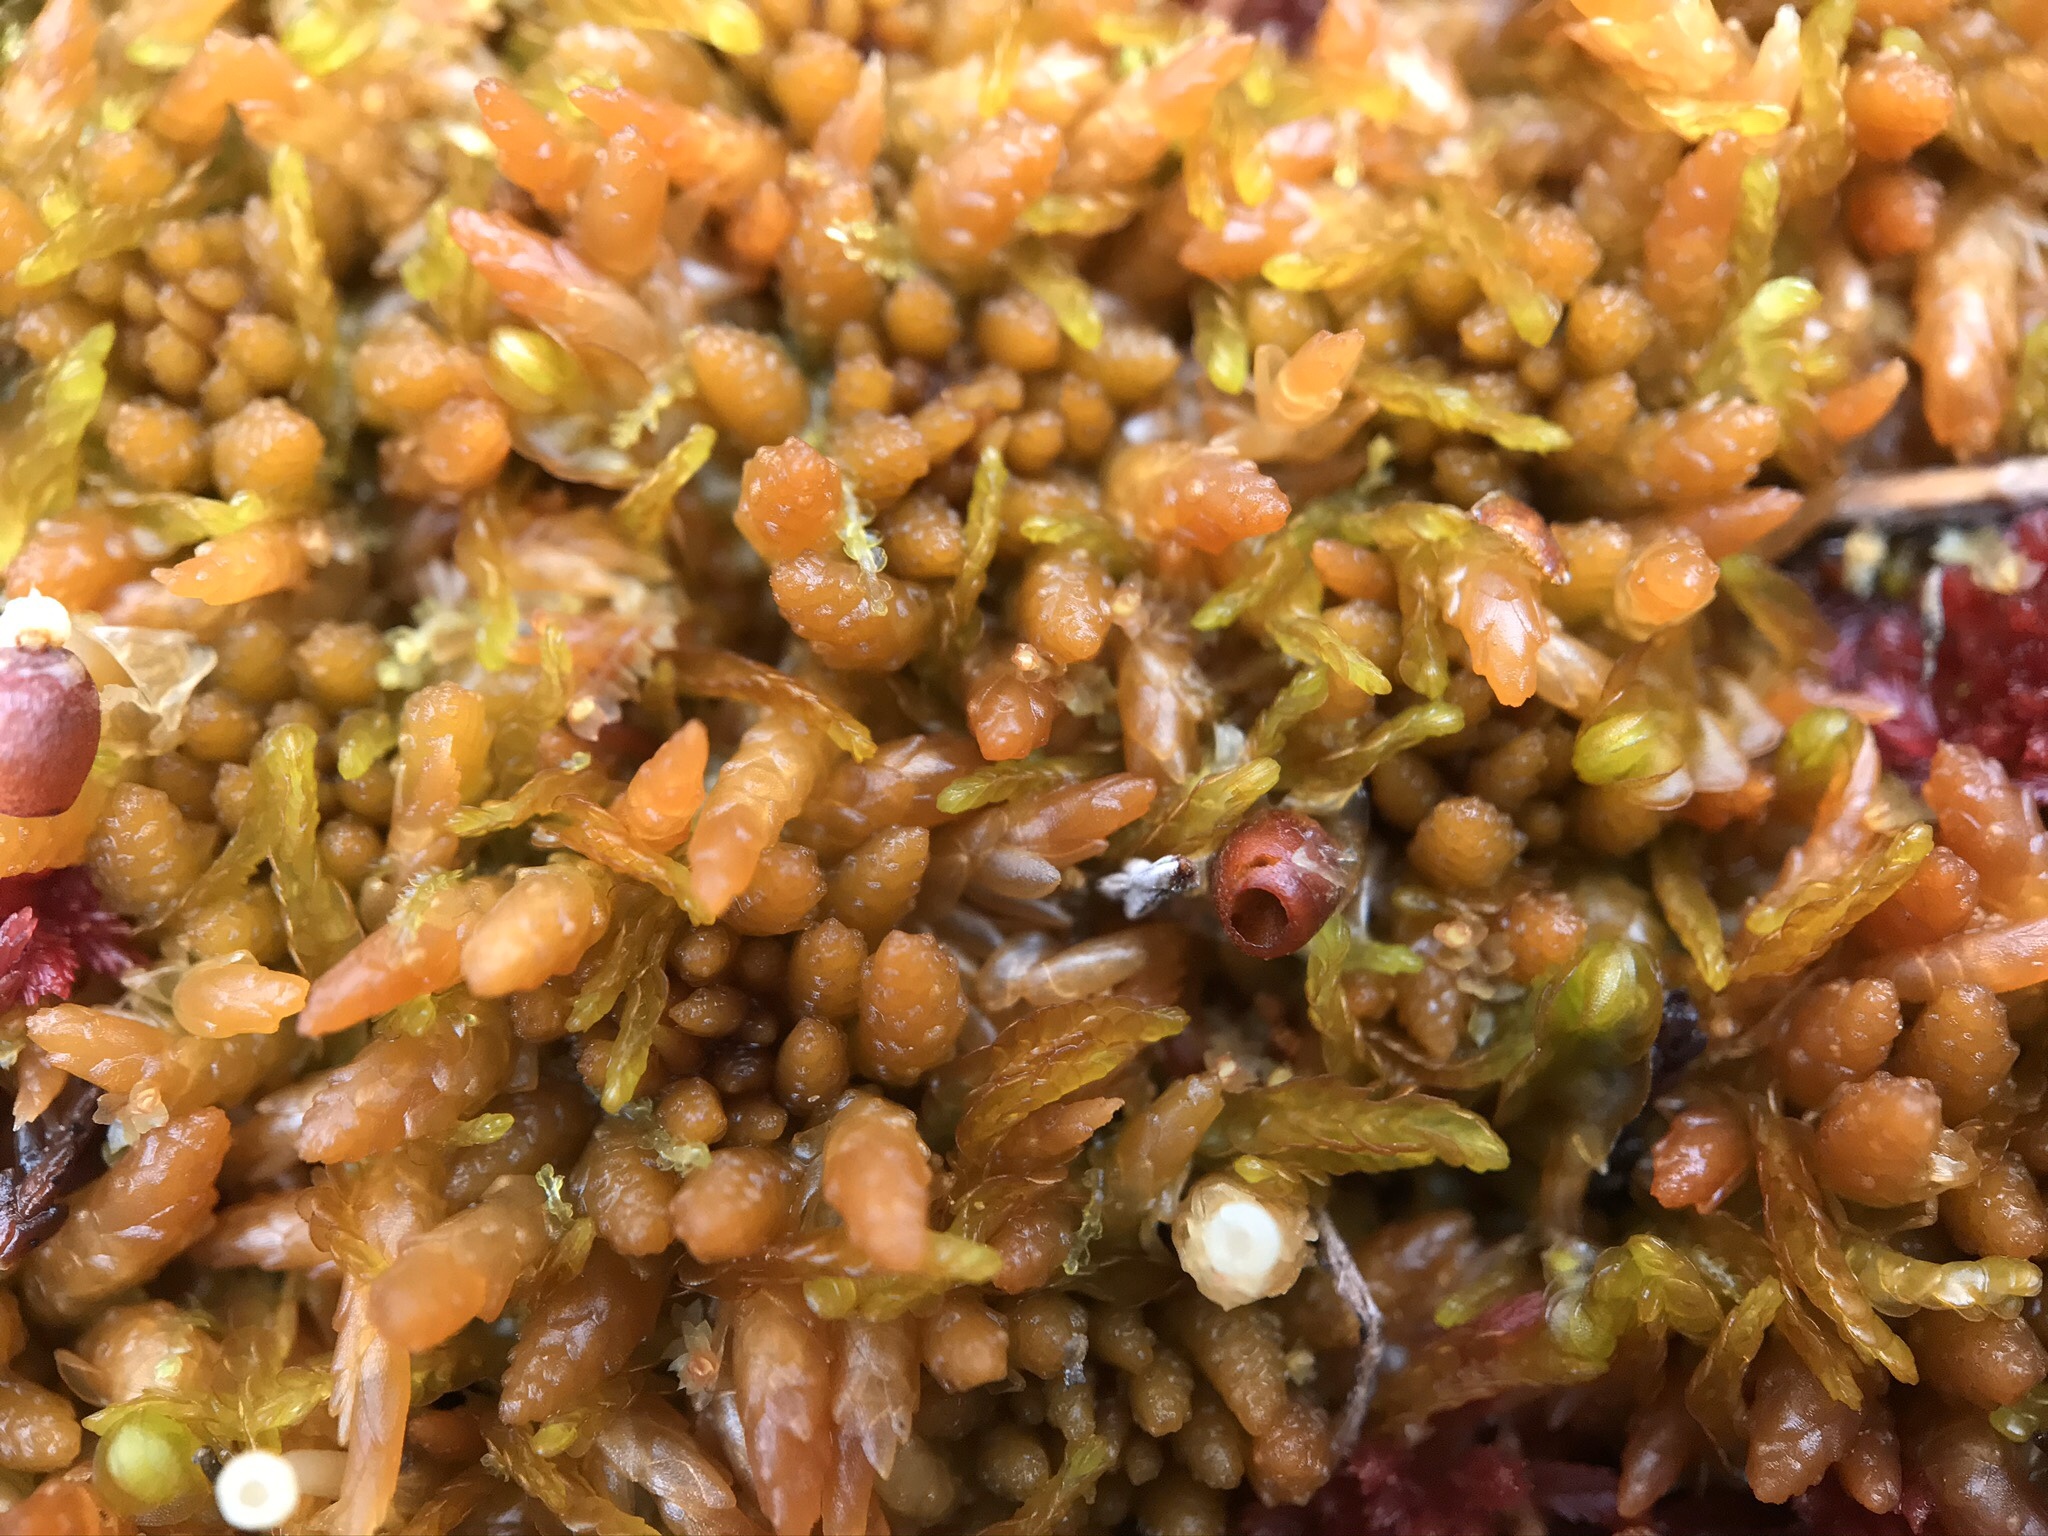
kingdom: Plantae
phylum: Bryophyta
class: Sphagnopsida
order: Sphagnales
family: Sphagnaceae
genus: Sphagnum
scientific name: Sphagnum austinii
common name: Austin's peat moss
